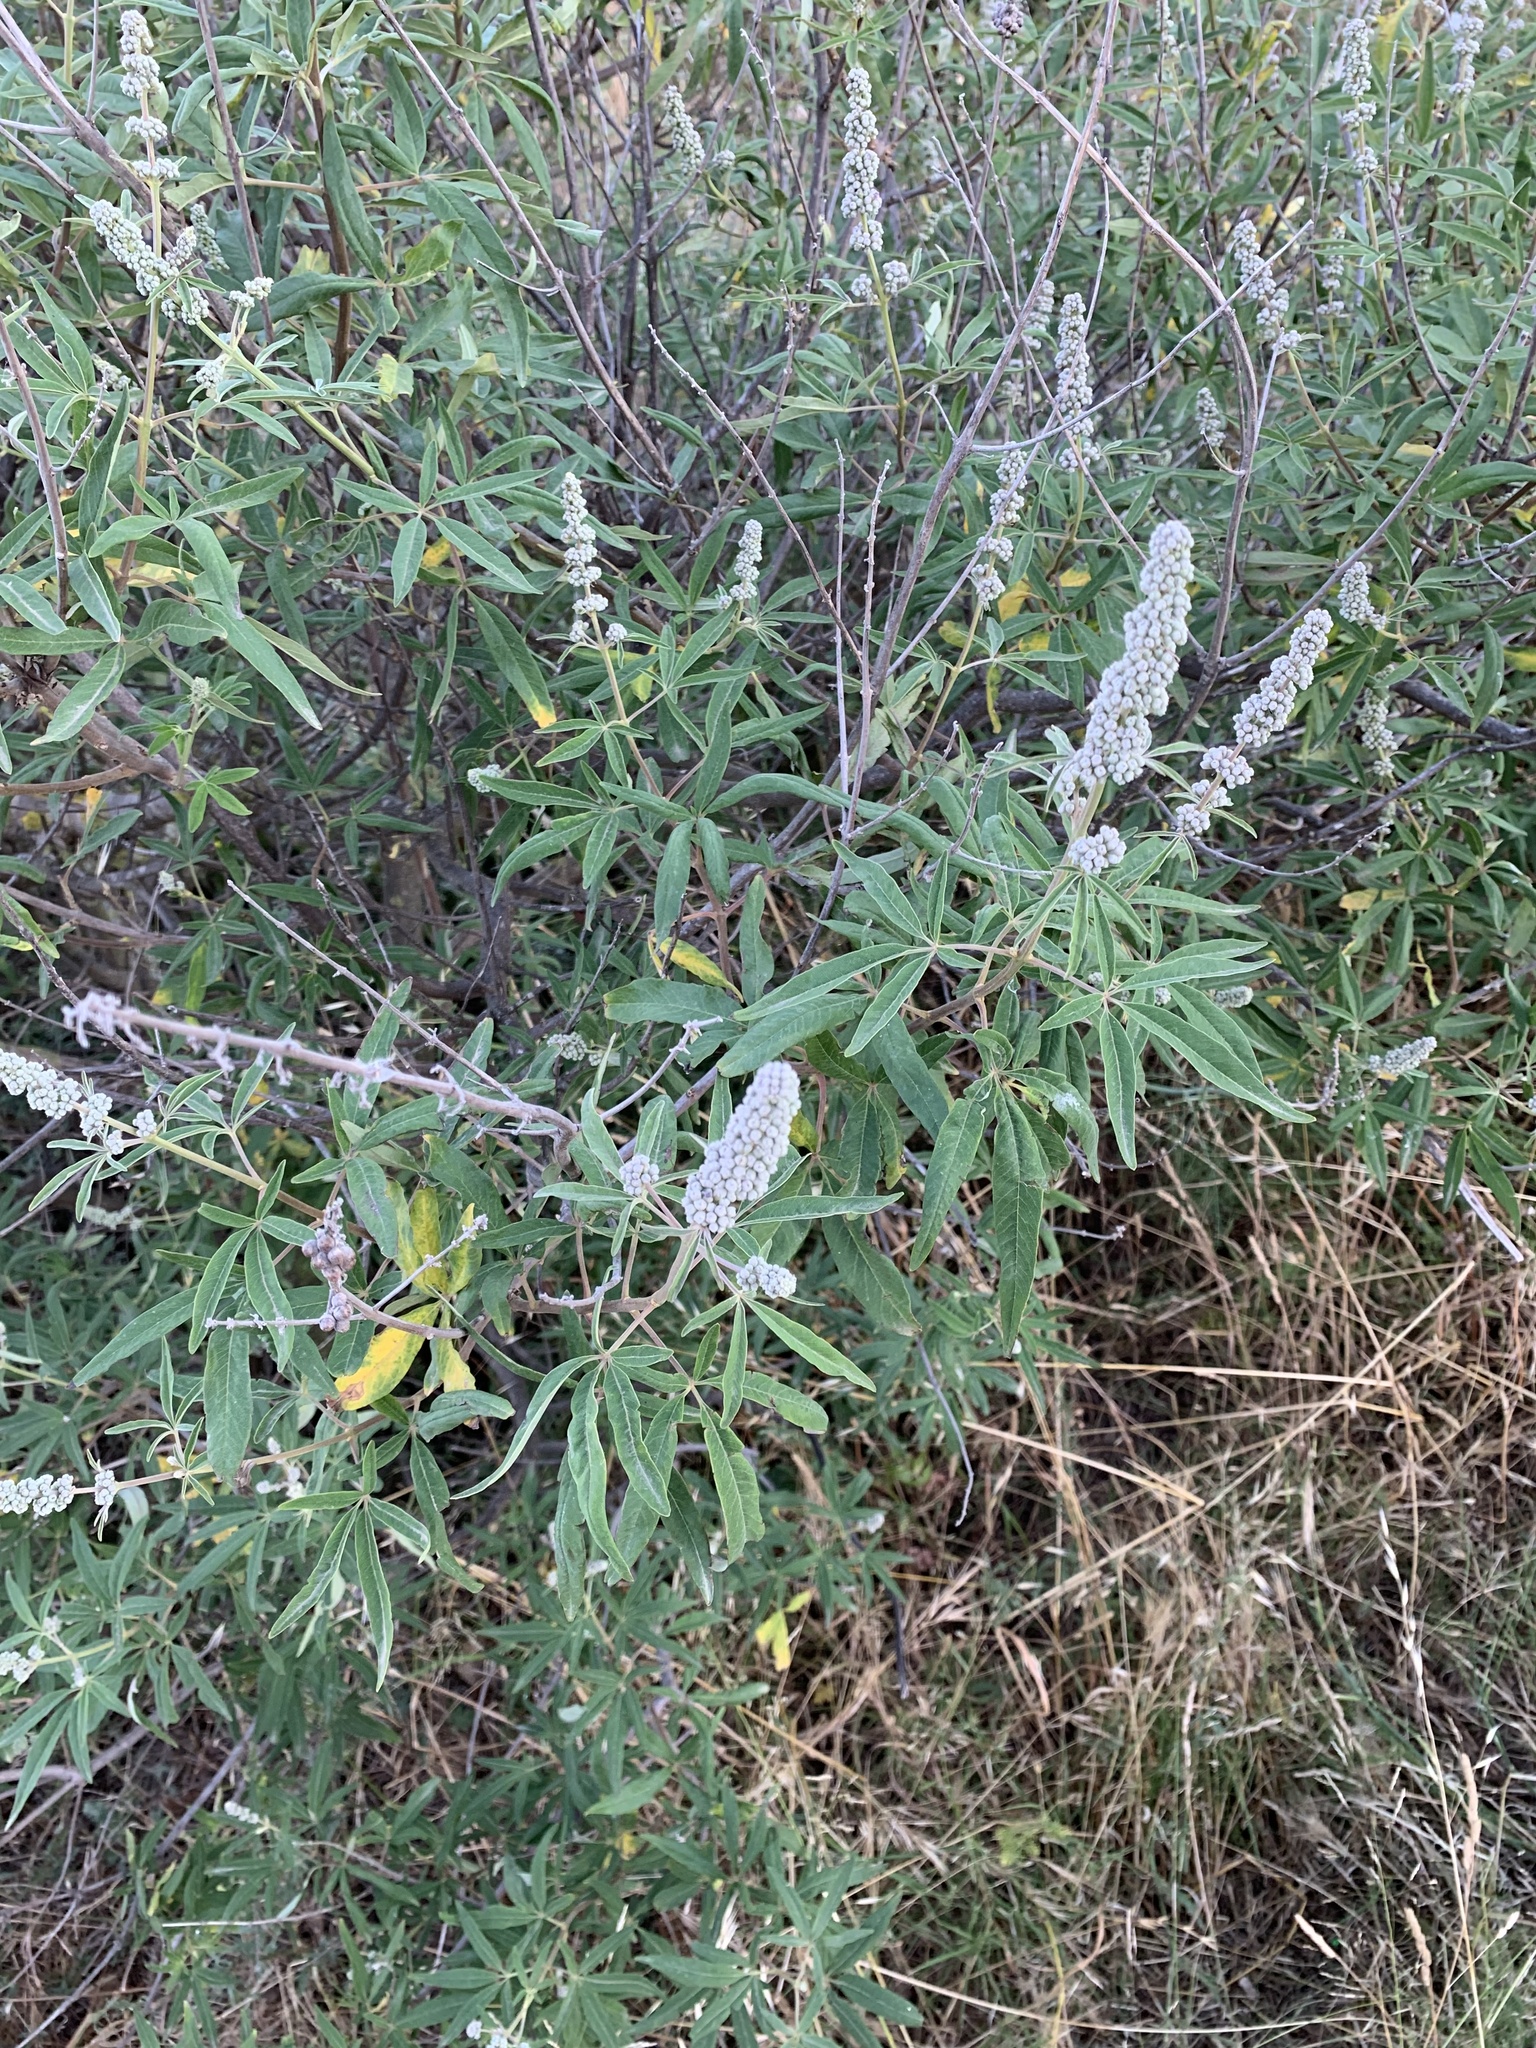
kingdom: Plantae
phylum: Tracheophyta
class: Magnoliopsida
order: Lamiales
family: Lamiaceae
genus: Vitex
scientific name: Vitex agnus-castus
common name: Chasteberry
